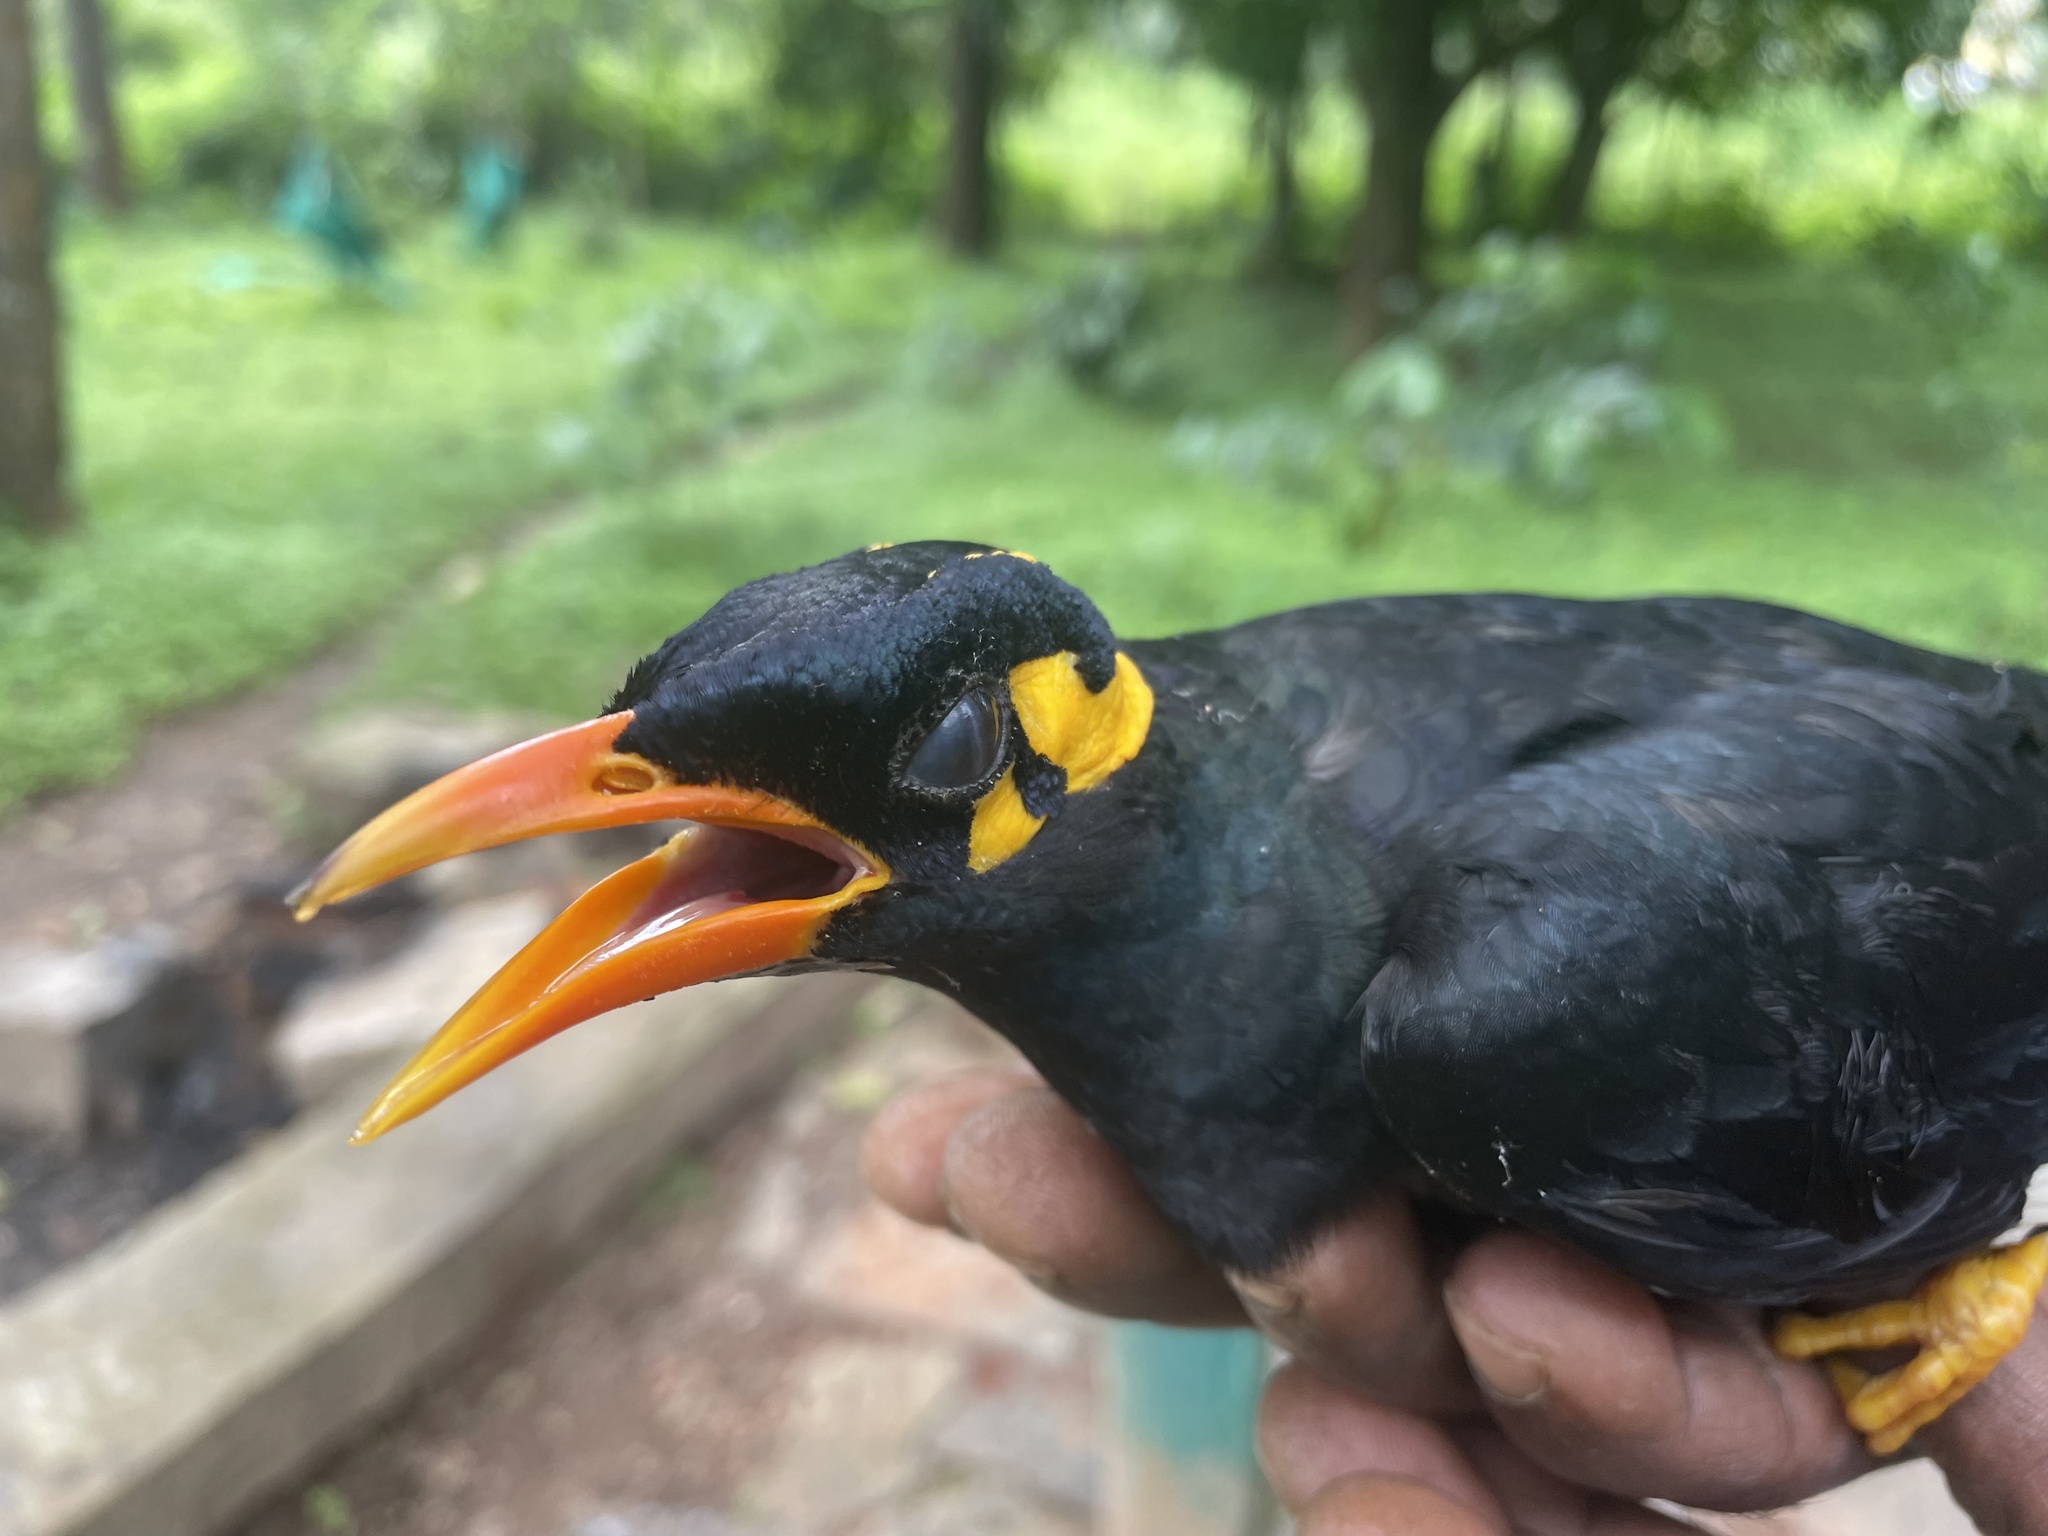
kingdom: Animalia
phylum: Chordata
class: Aves
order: Passeriformes
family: Sturnidae
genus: Gracula
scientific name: Gracula indica
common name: Southern hill myna
